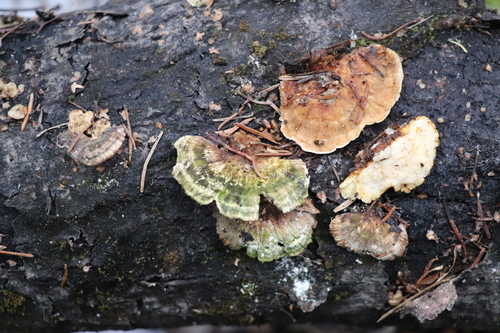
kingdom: Fungi
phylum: Basidiomycota
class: Agaricomycetes
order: Polyporales
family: Polyporaceae
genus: Trametes
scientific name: Trametes ochracea
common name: Ochre bracket
